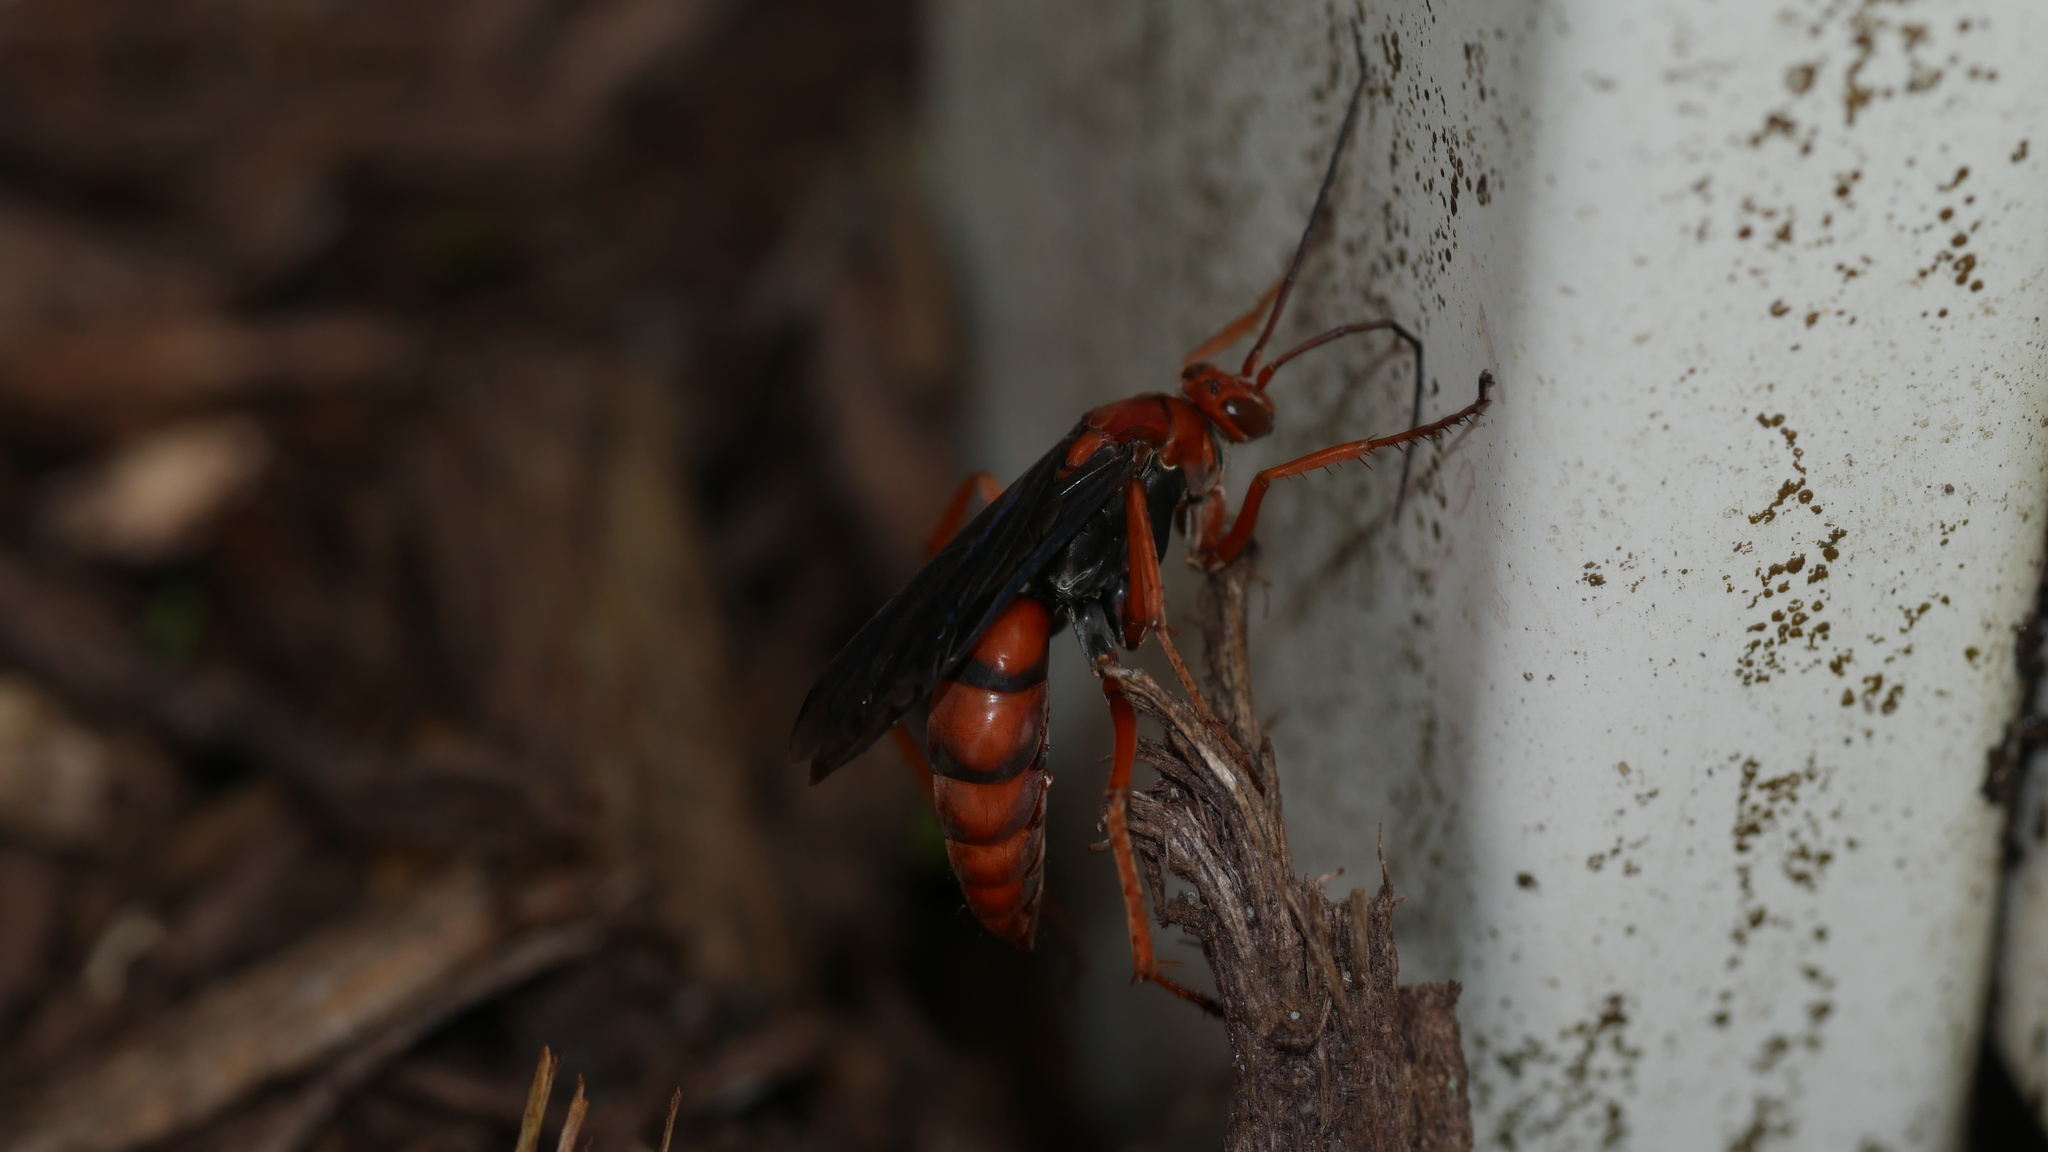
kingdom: Animalia
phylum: Arthropoda
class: Insecta
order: Hymenoptera
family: Pompilidae
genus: Tachypompilus
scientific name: Tachypompilus ferrugineus
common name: Rusty spider wasp
